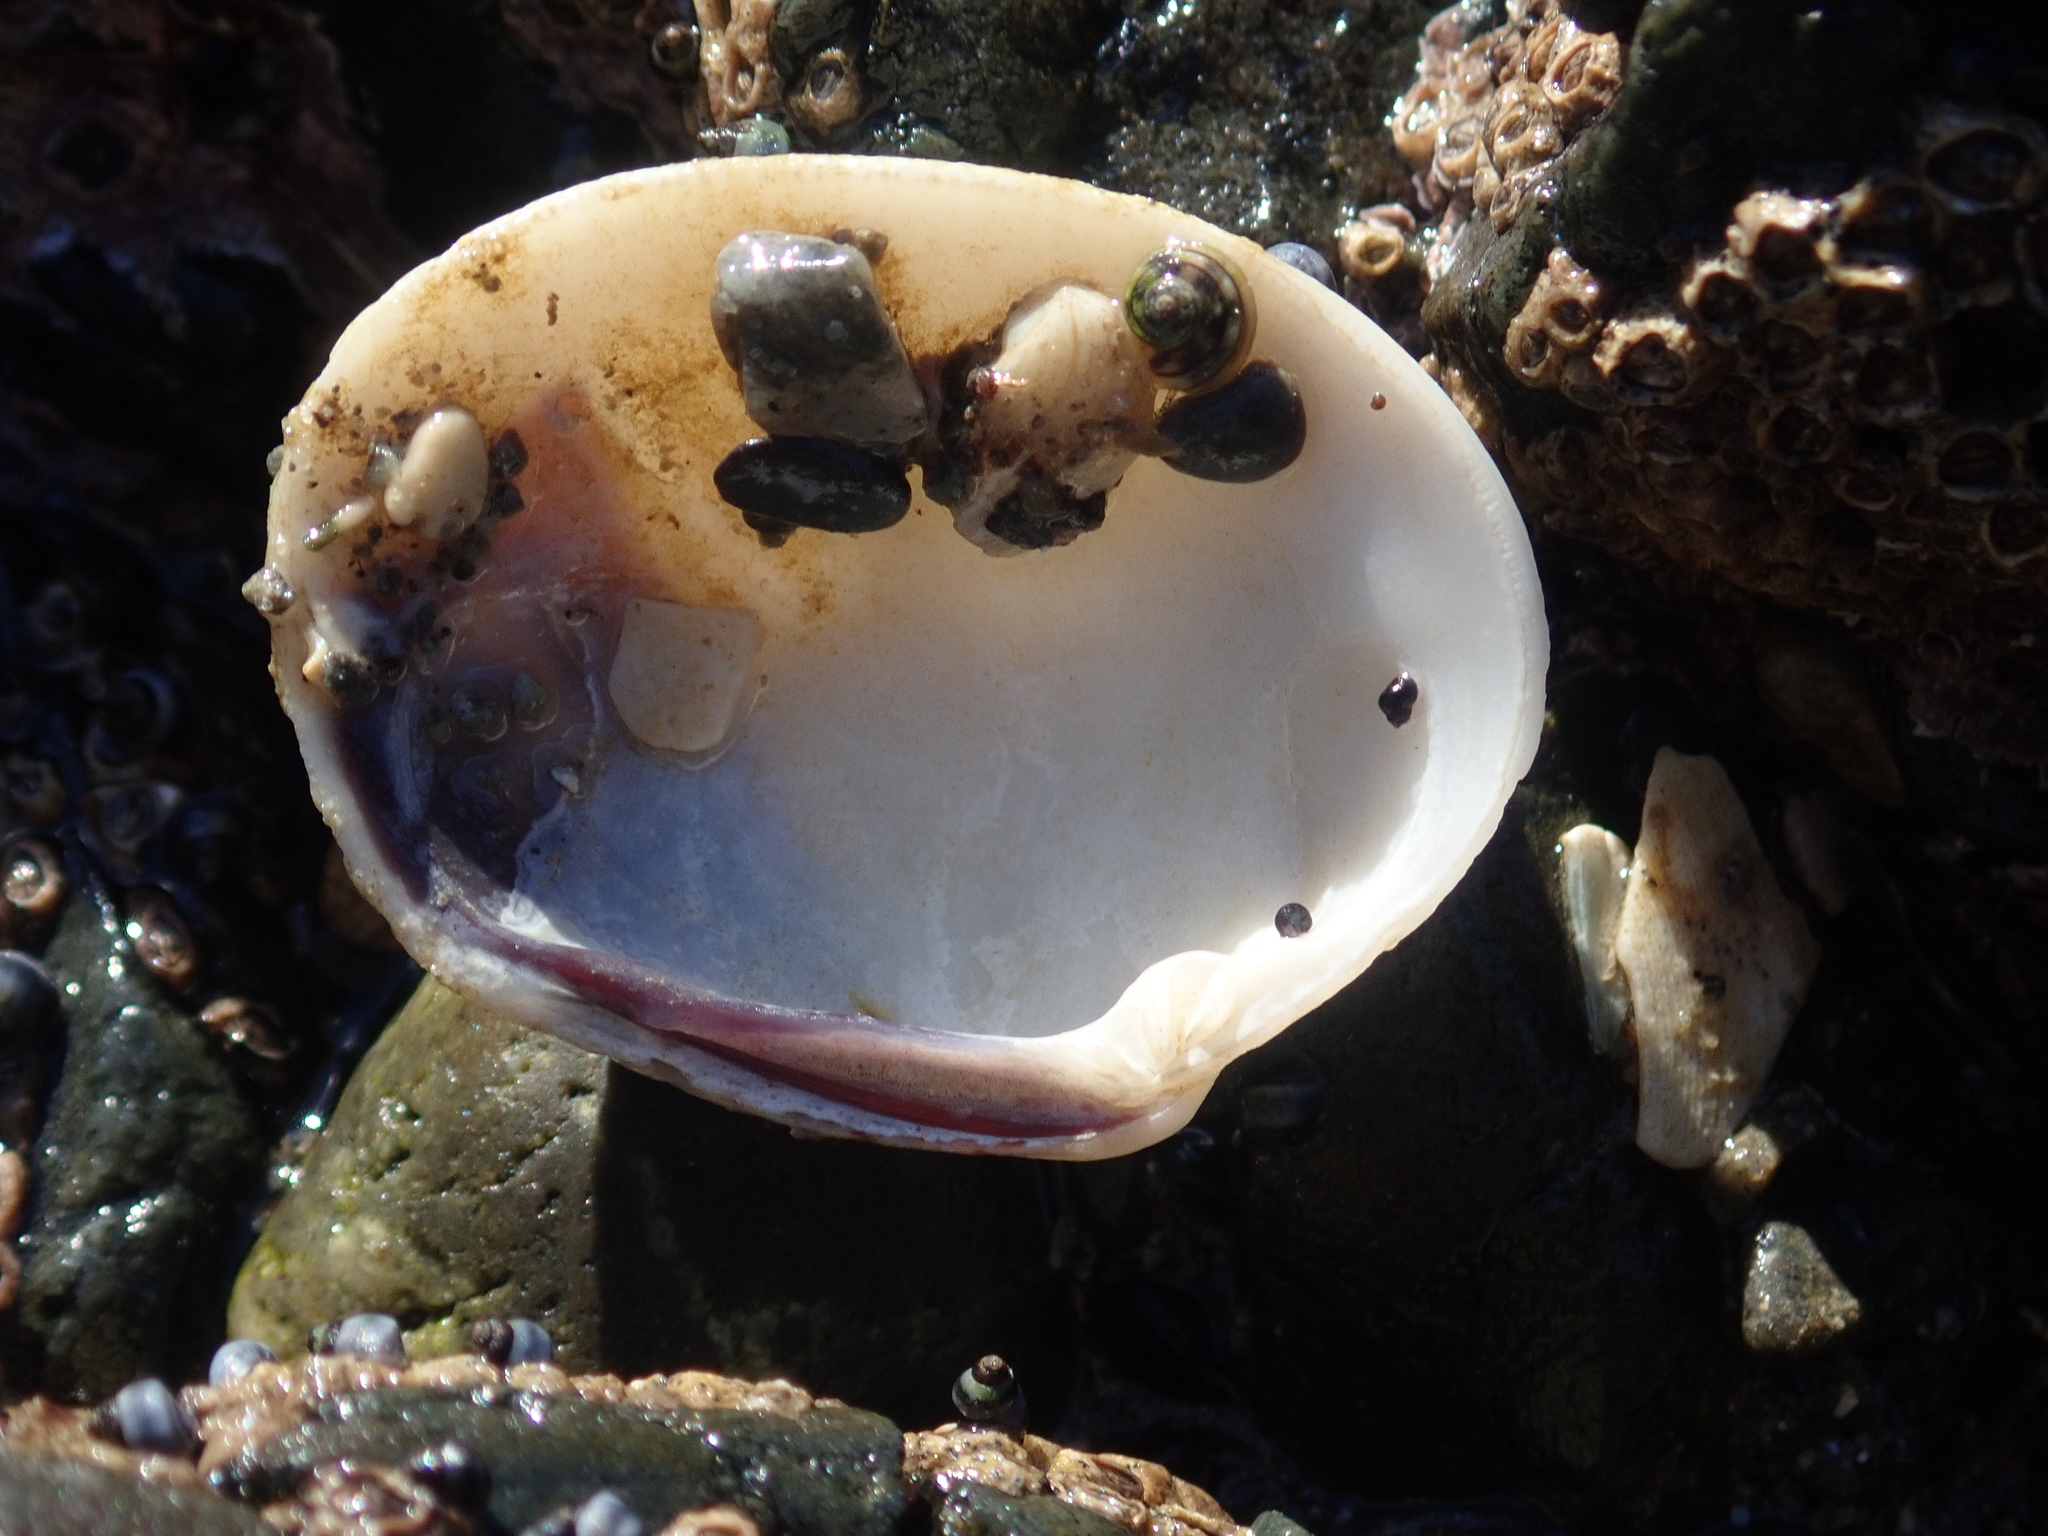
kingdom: Animalia
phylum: Mollusca
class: Bivalvia
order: Venerida
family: Veneridae
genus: Leukoma
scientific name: Leukoma crassicosta
